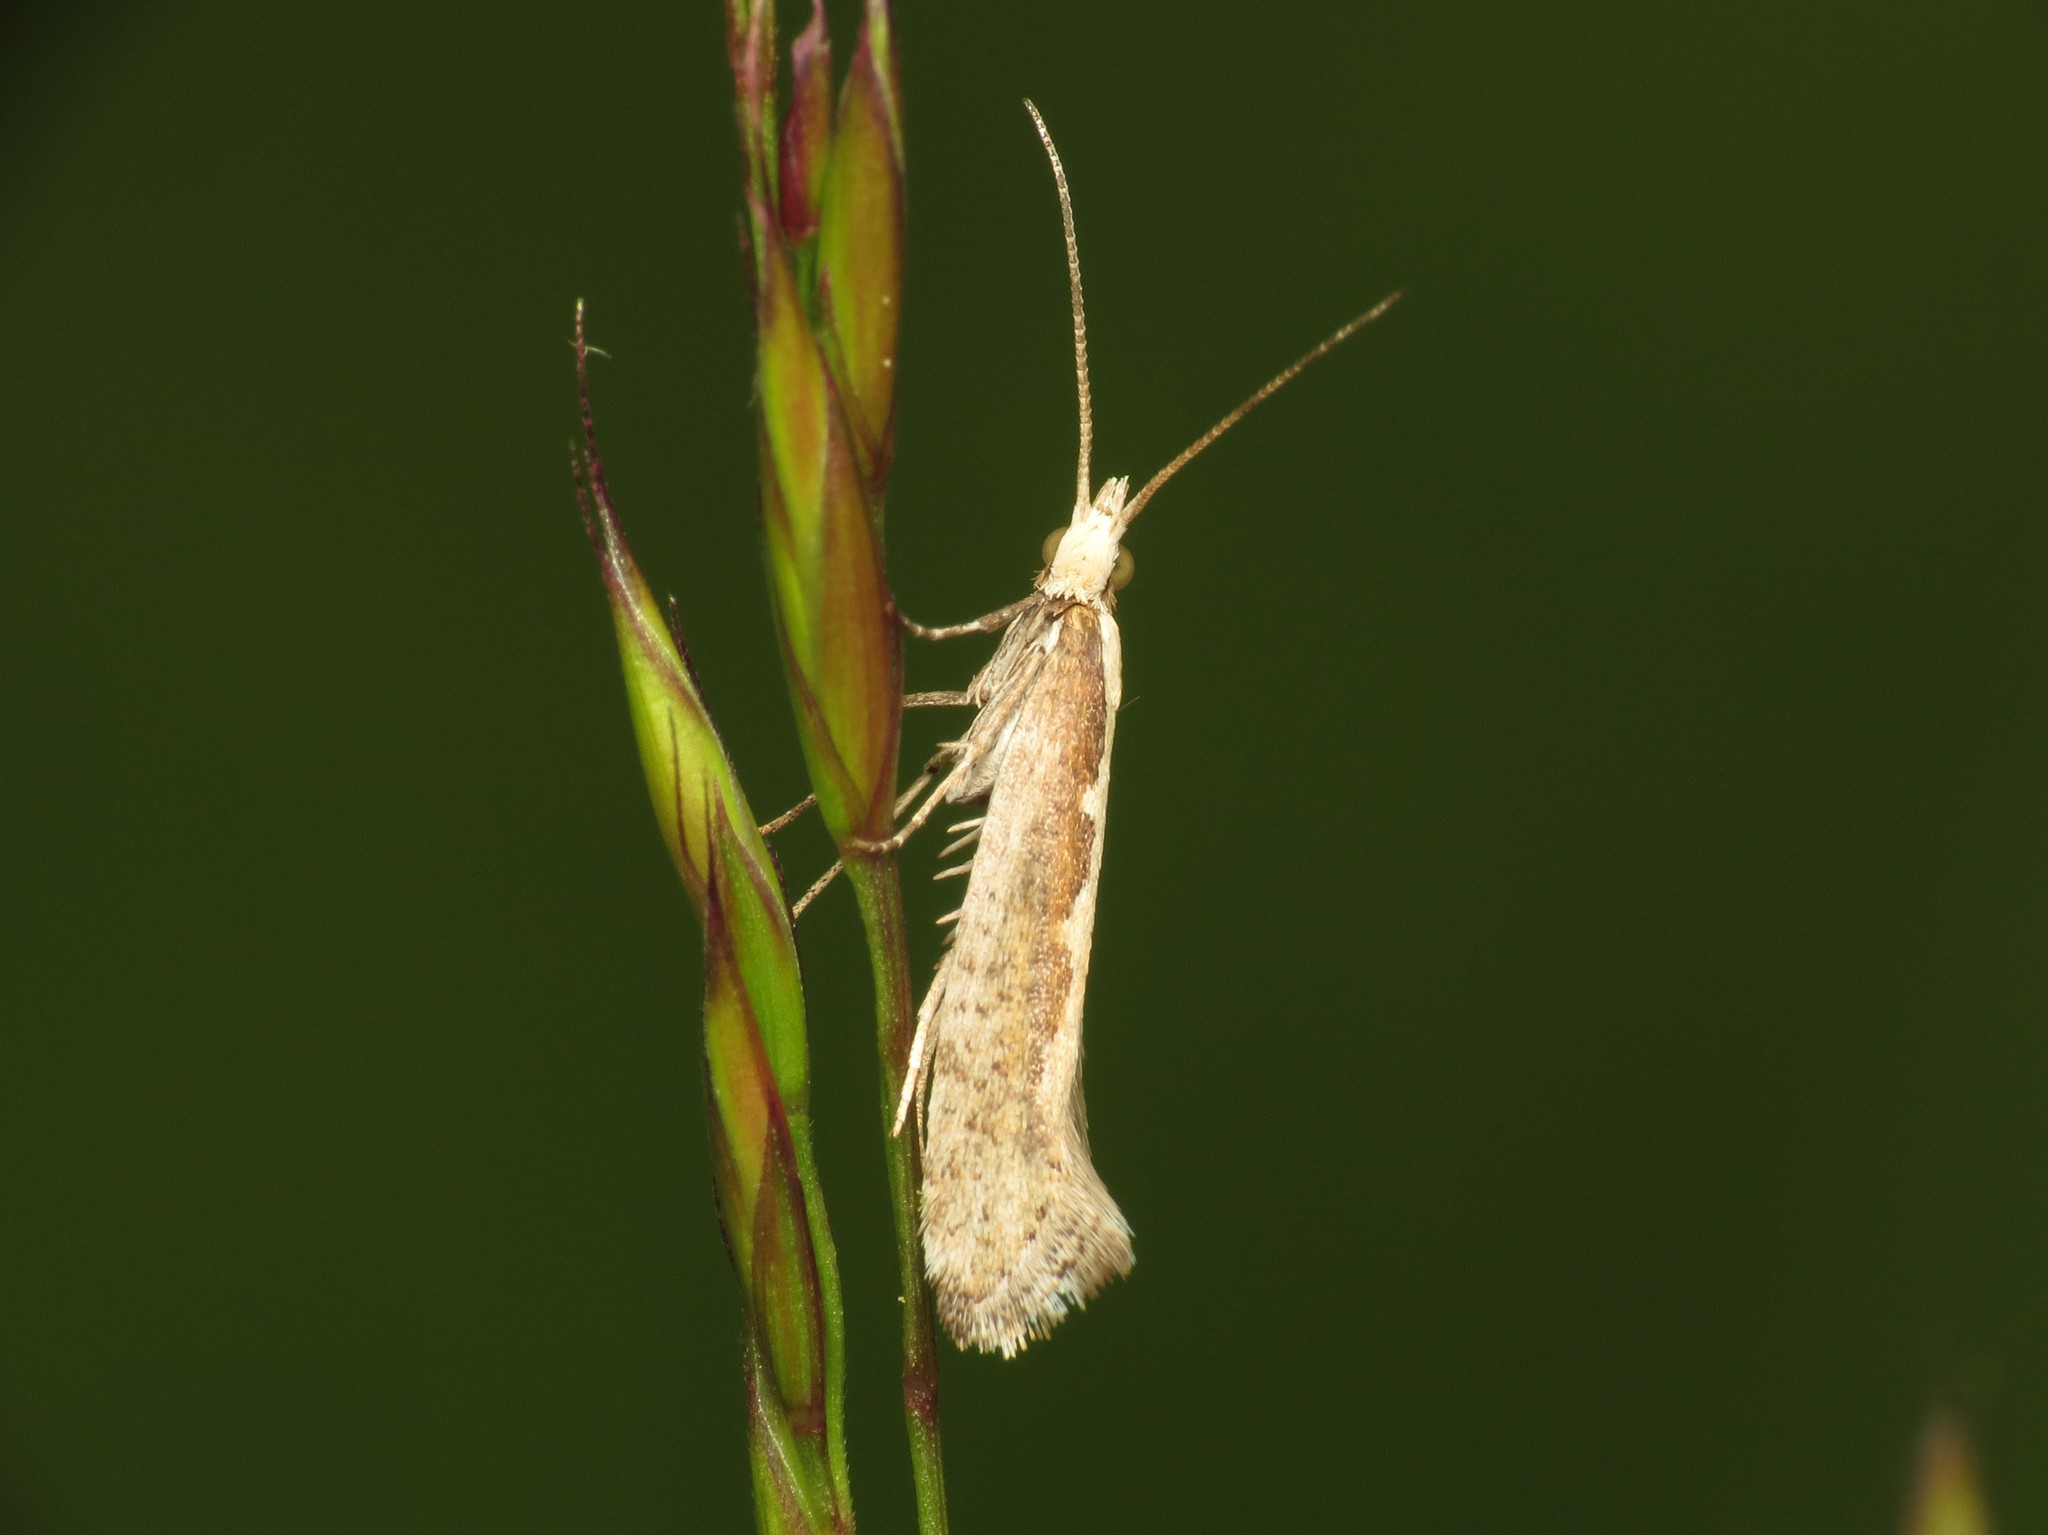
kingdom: Animalia
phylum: Arthropoda
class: Insecta
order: Lepidoptera
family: Plutellidae
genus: Plutella
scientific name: Plutella xylostella
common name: Diamond-back moth
